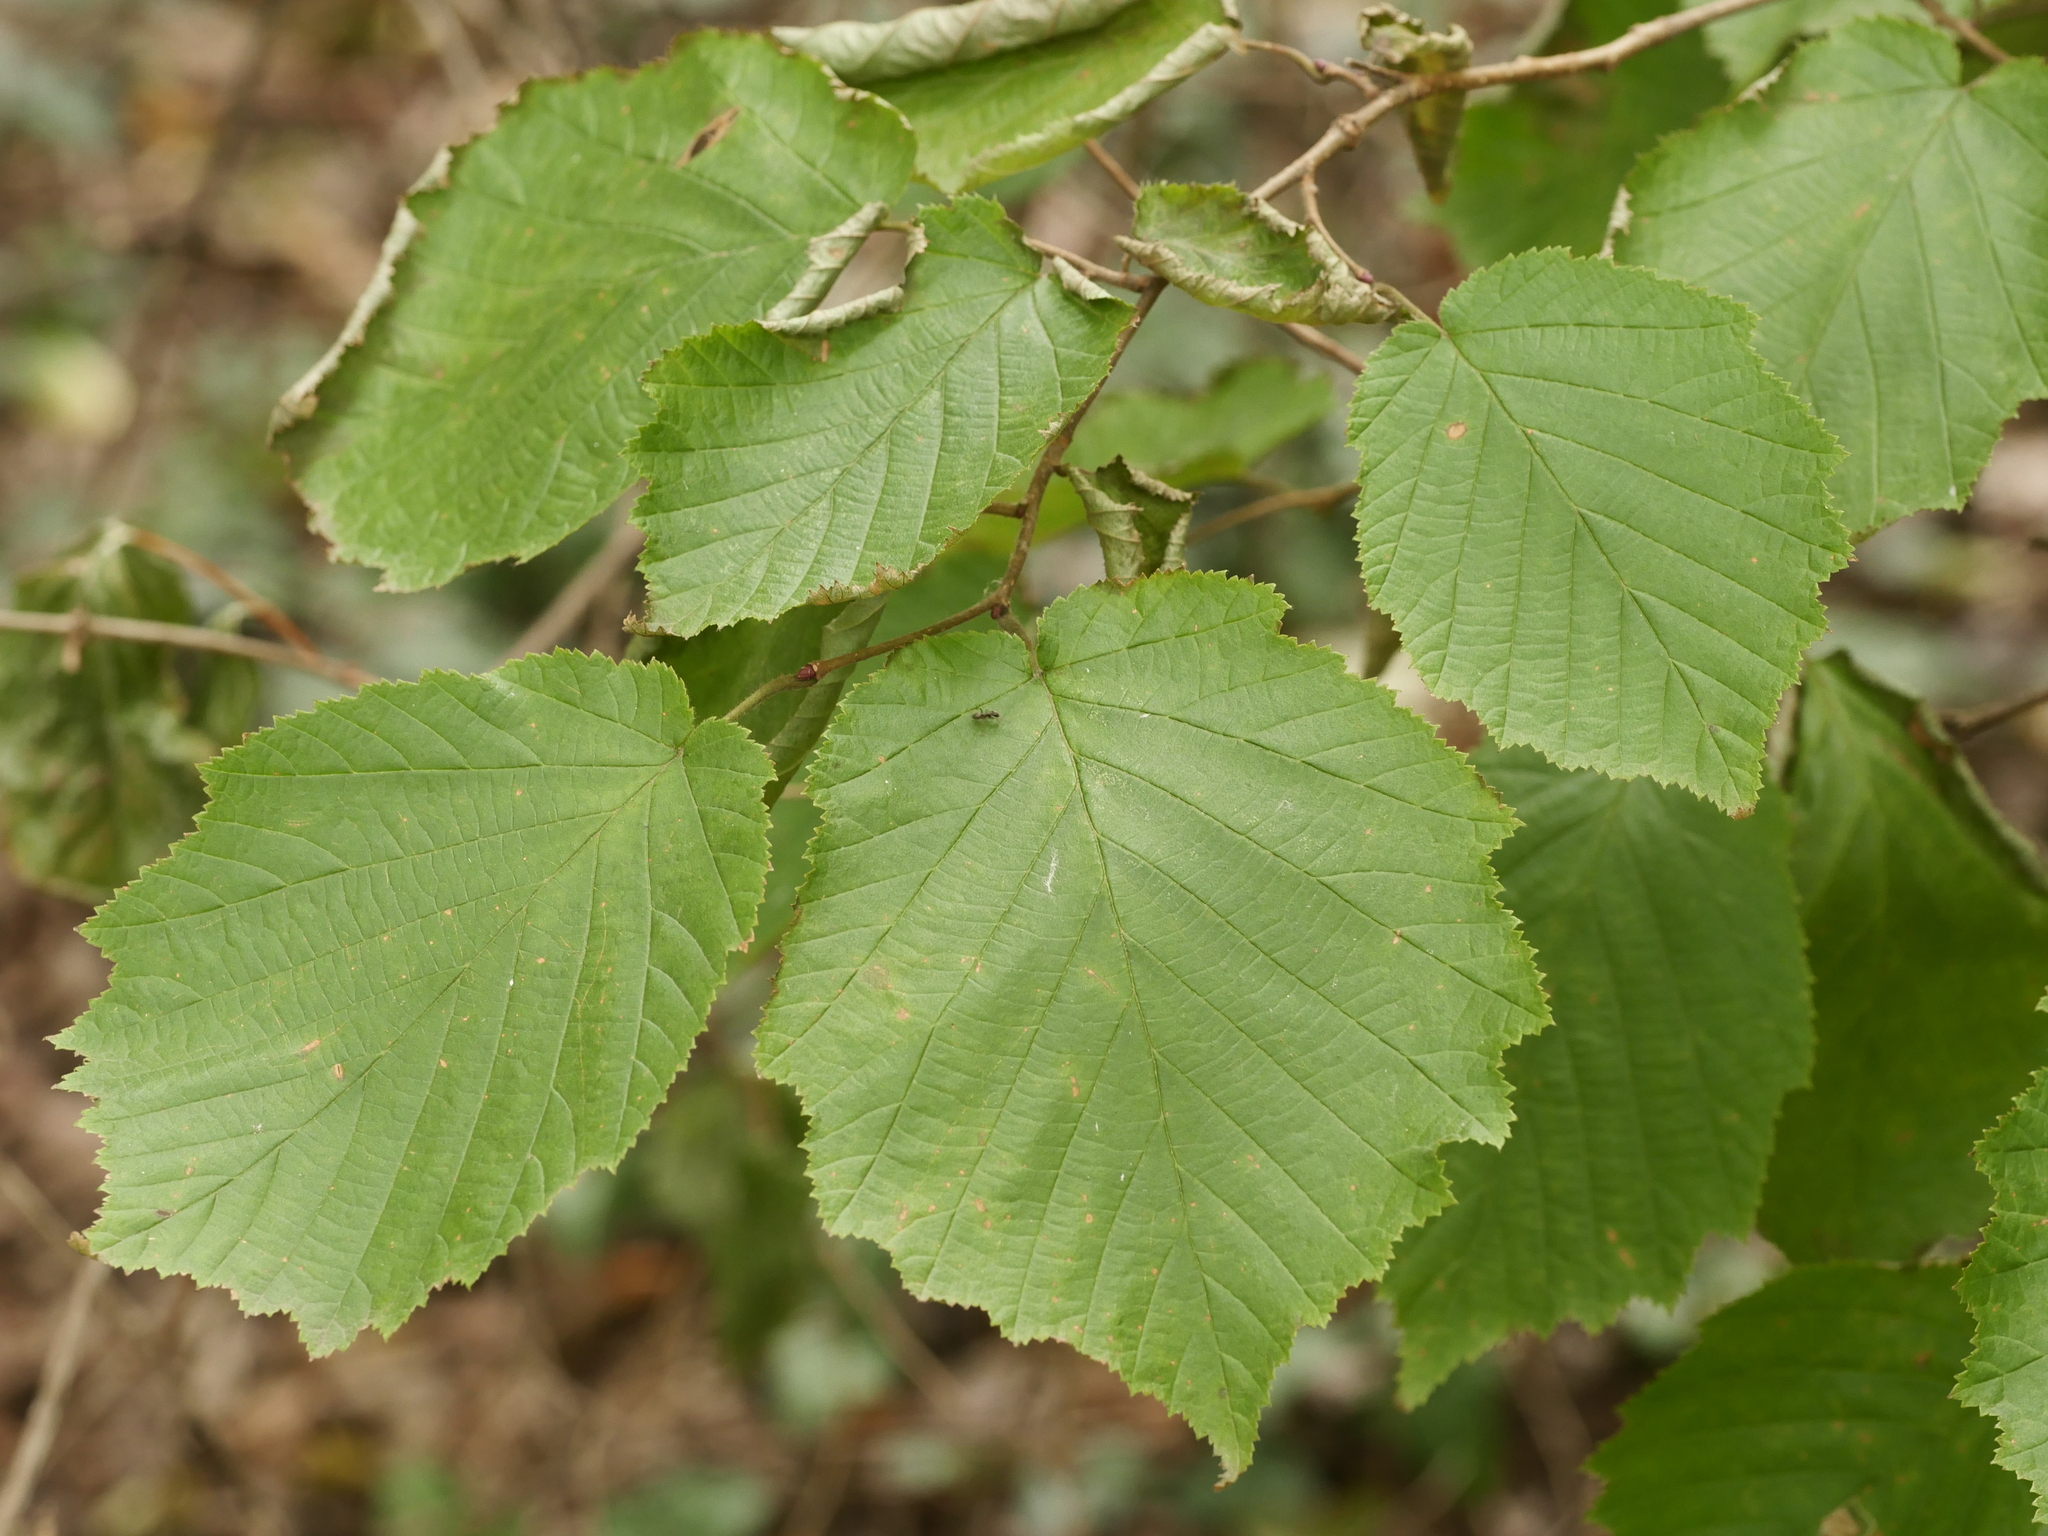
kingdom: Plantae
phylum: Tracheophyta
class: Magnoliopsida
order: Fagales
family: Betulaceae
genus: Corylus
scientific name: Corylus avellana
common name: European hazel
